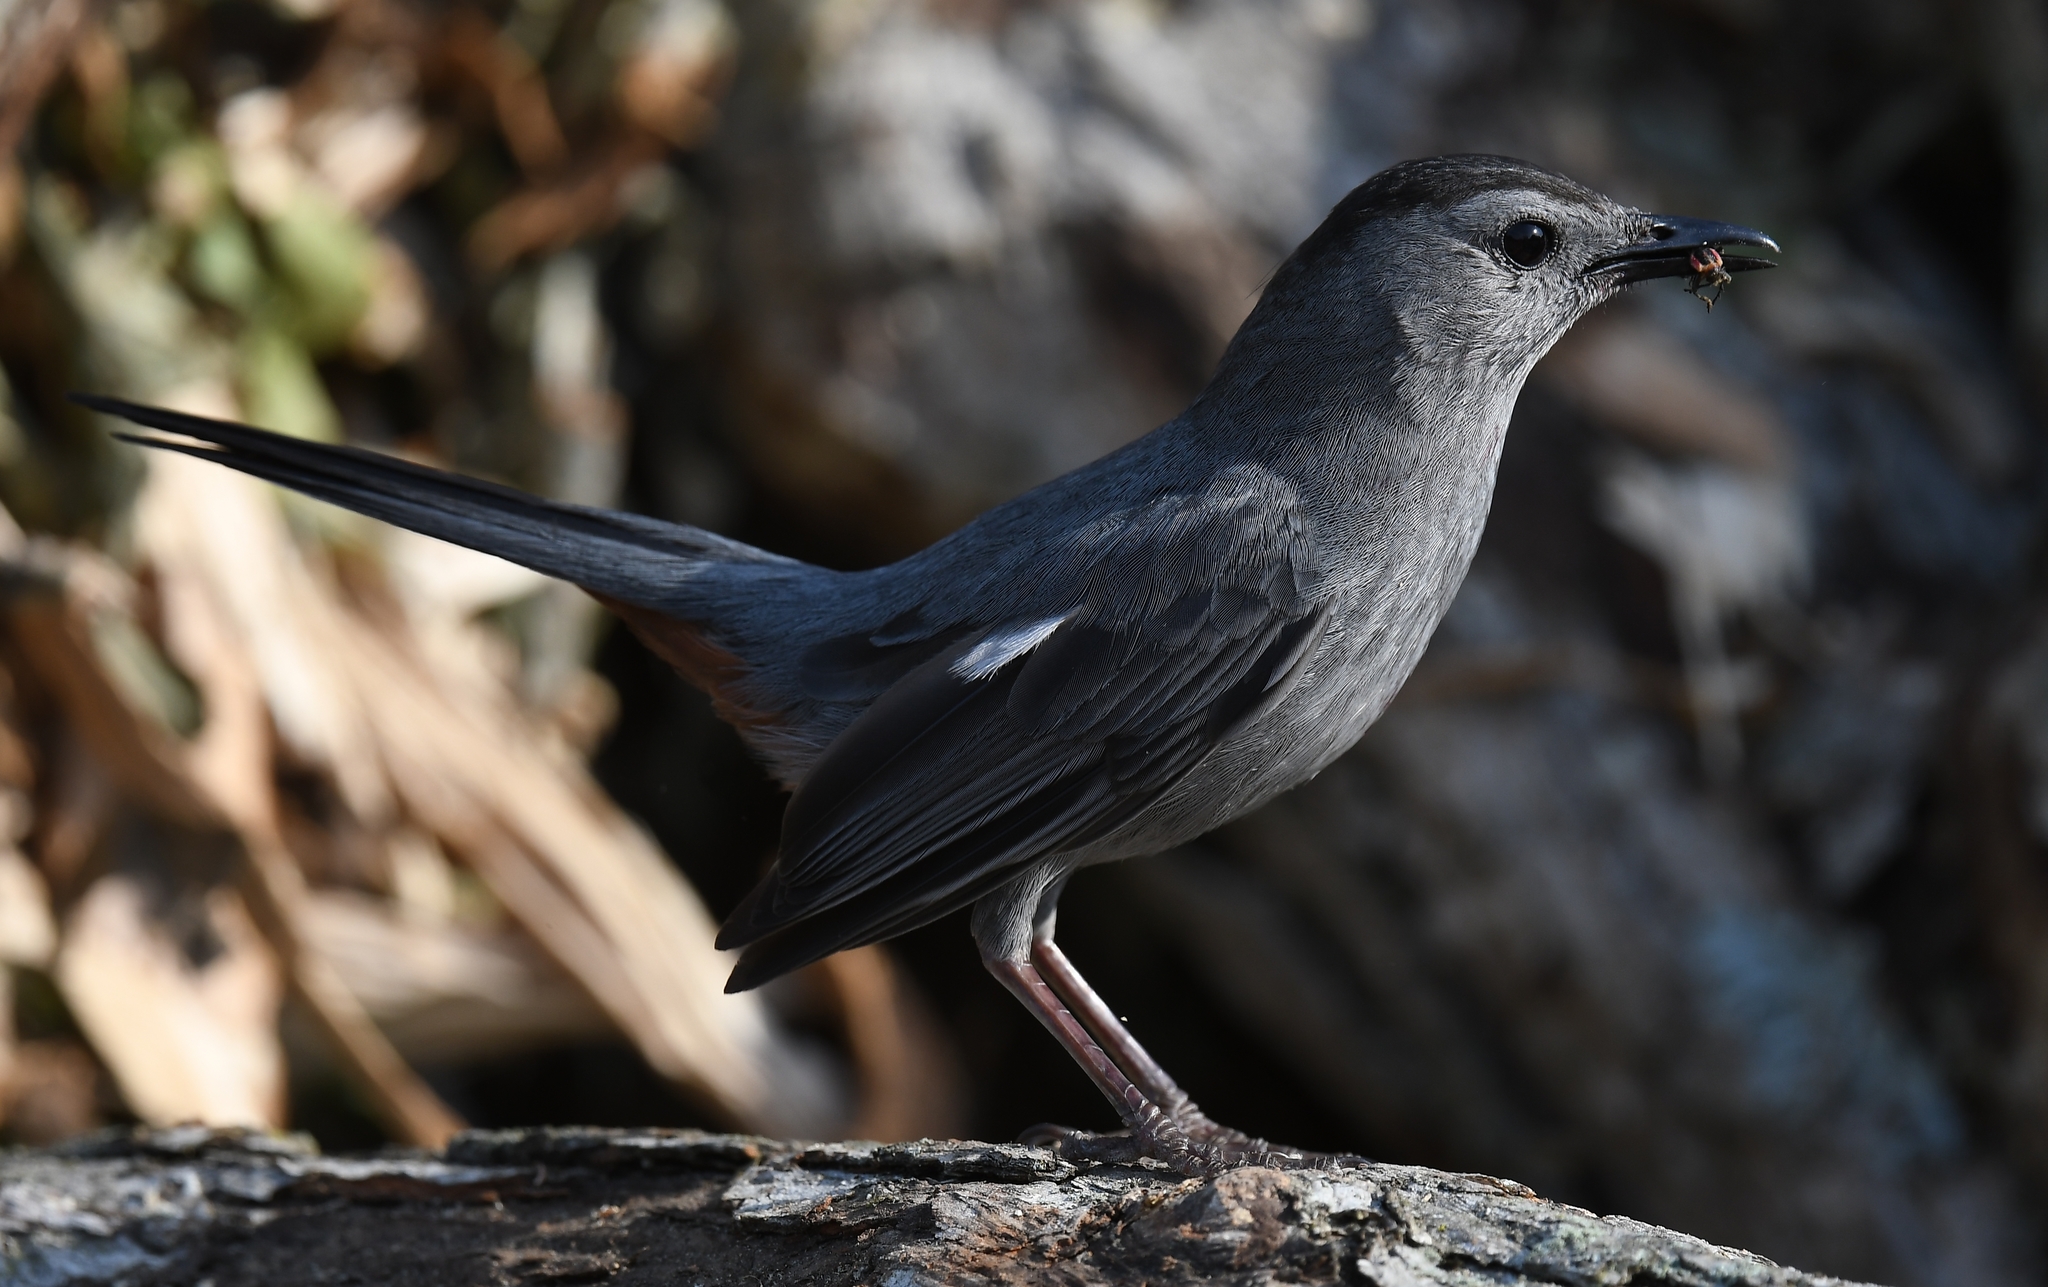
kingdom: Animalia
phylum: Chordata
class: Aves
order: Passeriformes
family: Mimidae
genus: Dumetella
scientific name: Dumetella carolinensis
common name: Gray catbird
